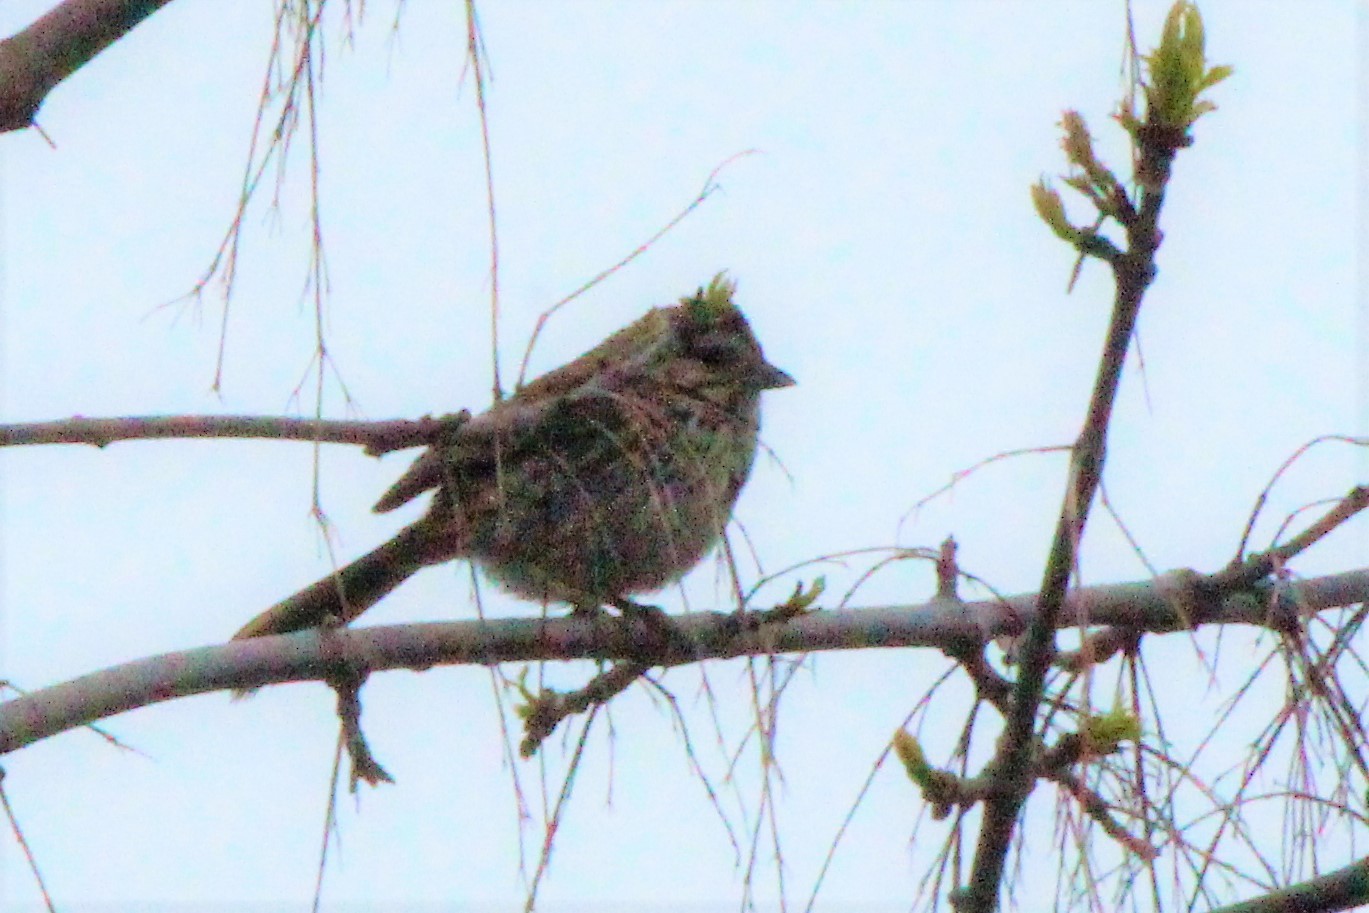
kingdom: Animalia
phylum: Chordata
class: Aves
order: Passeriformes
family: Passerellidae
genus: Melospiza
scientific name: Melospiza melodia
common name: Song sparrow
